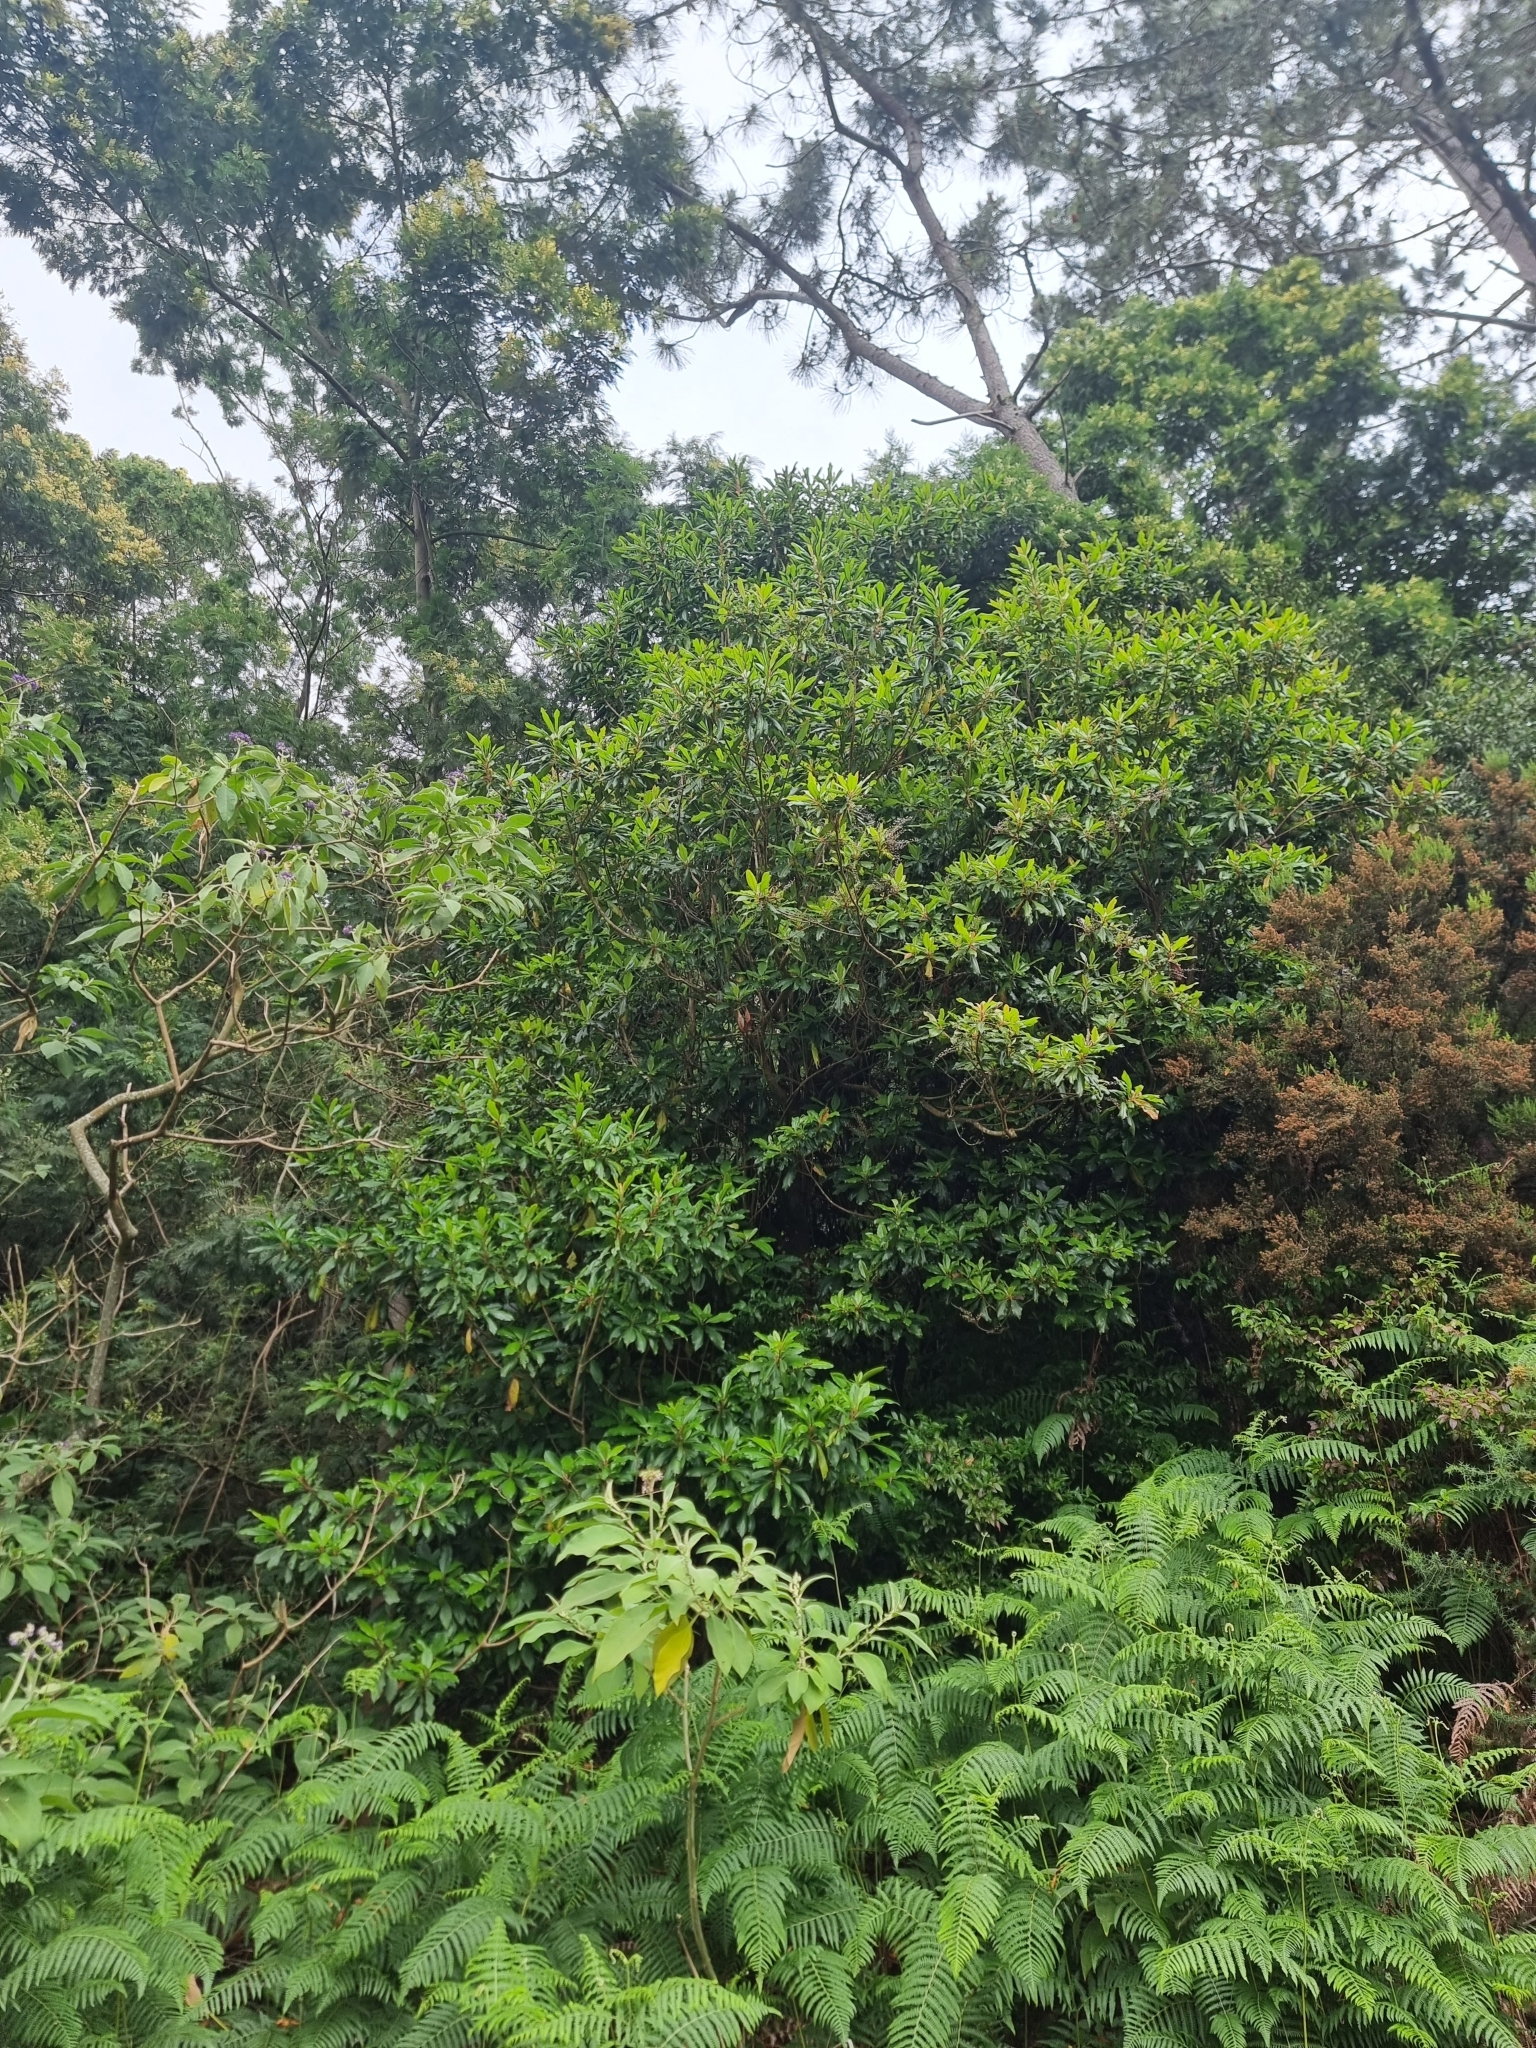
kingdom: Plantae
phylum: Tracheophyta
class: Magnoliopsida
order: Ericales
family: Clethraceae
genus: Clethra
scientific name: Clethra arborea
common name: Lily-of-the-valley-tree
